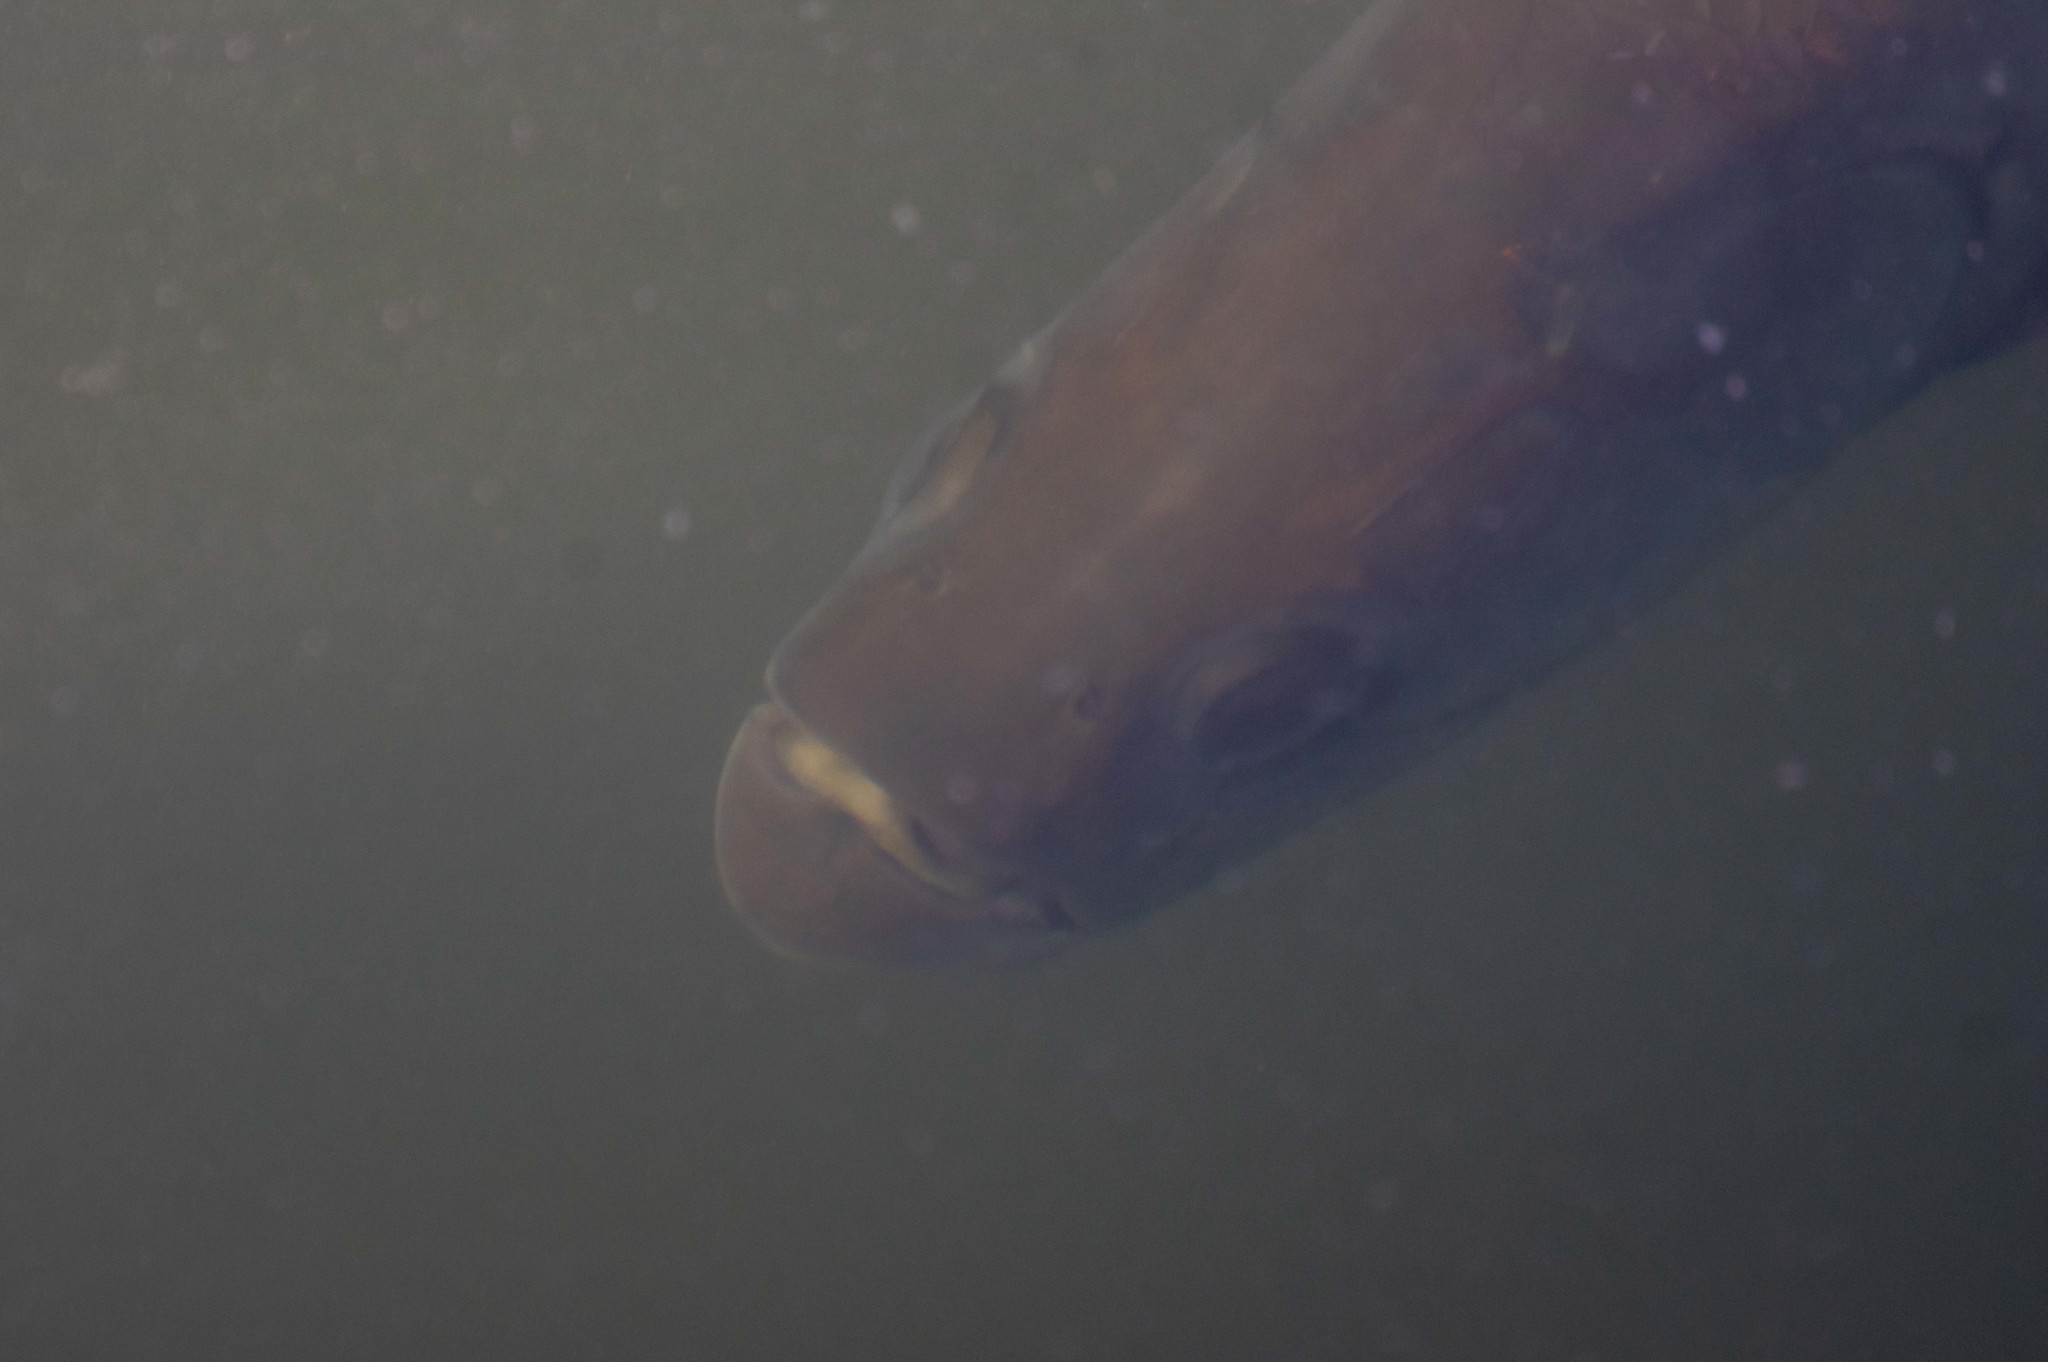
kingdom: Animalia
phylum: Chordata
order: Elopiformes
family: Megalopidae
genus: Megalops
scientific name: Megalops atlanticus
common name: Tarpon
